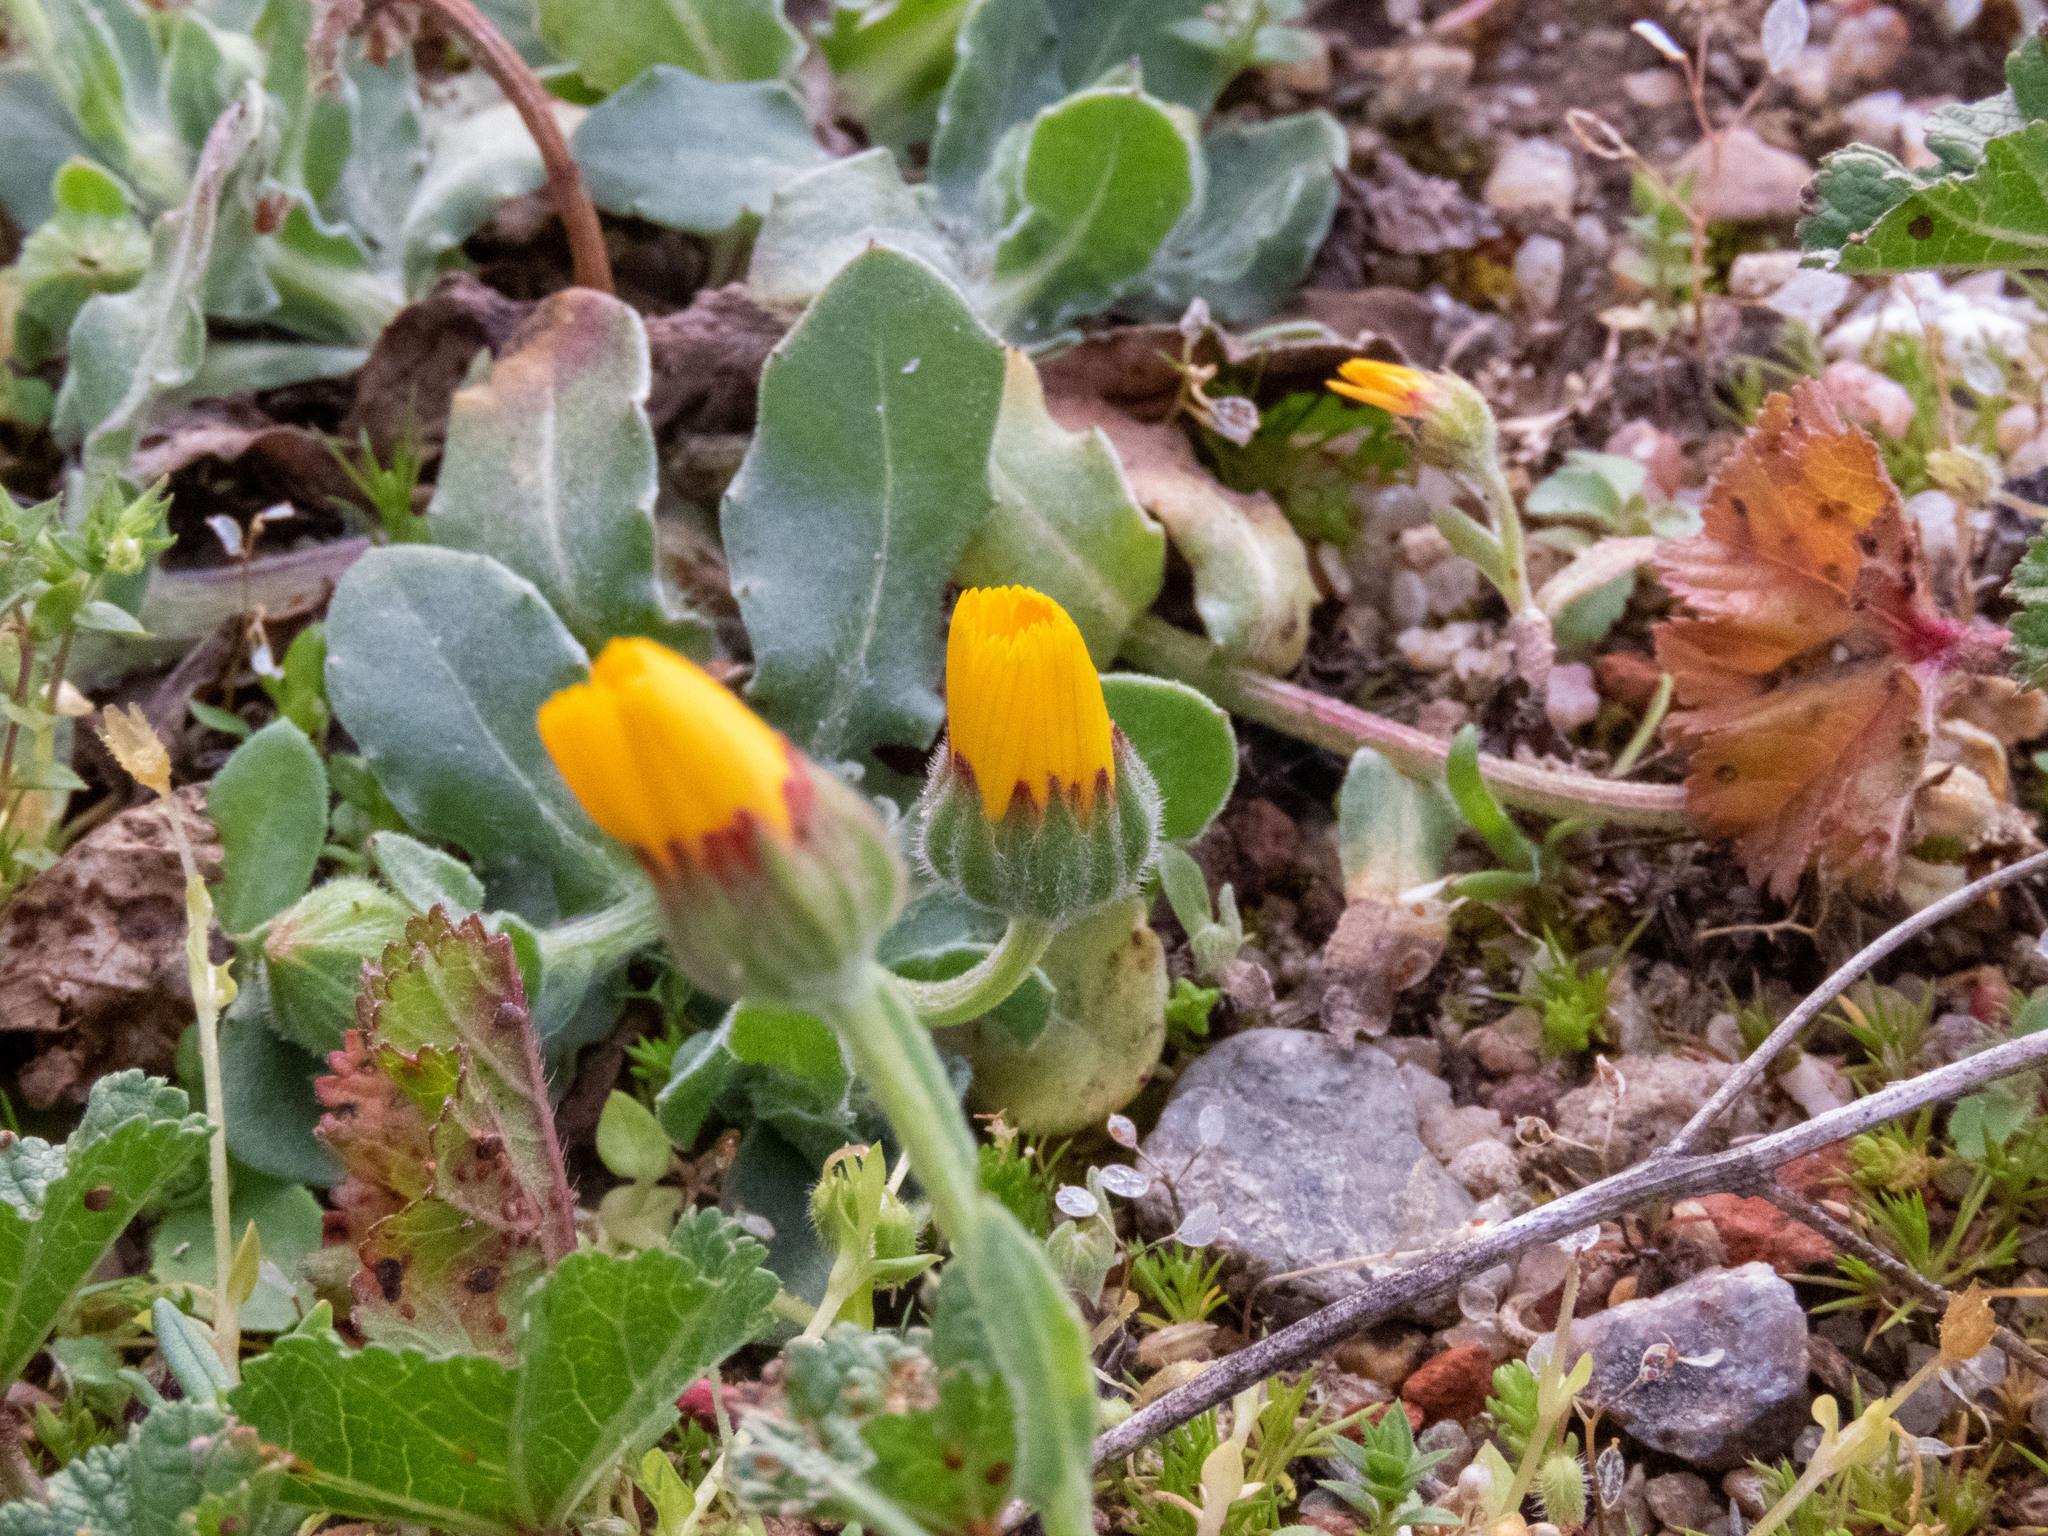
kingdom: Plantae
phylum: Tracheophyta
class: Magnoliopsida
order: Asterales
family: Asteraceae
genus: Calendula
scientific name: Calendula arvensis
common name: Field marigold
